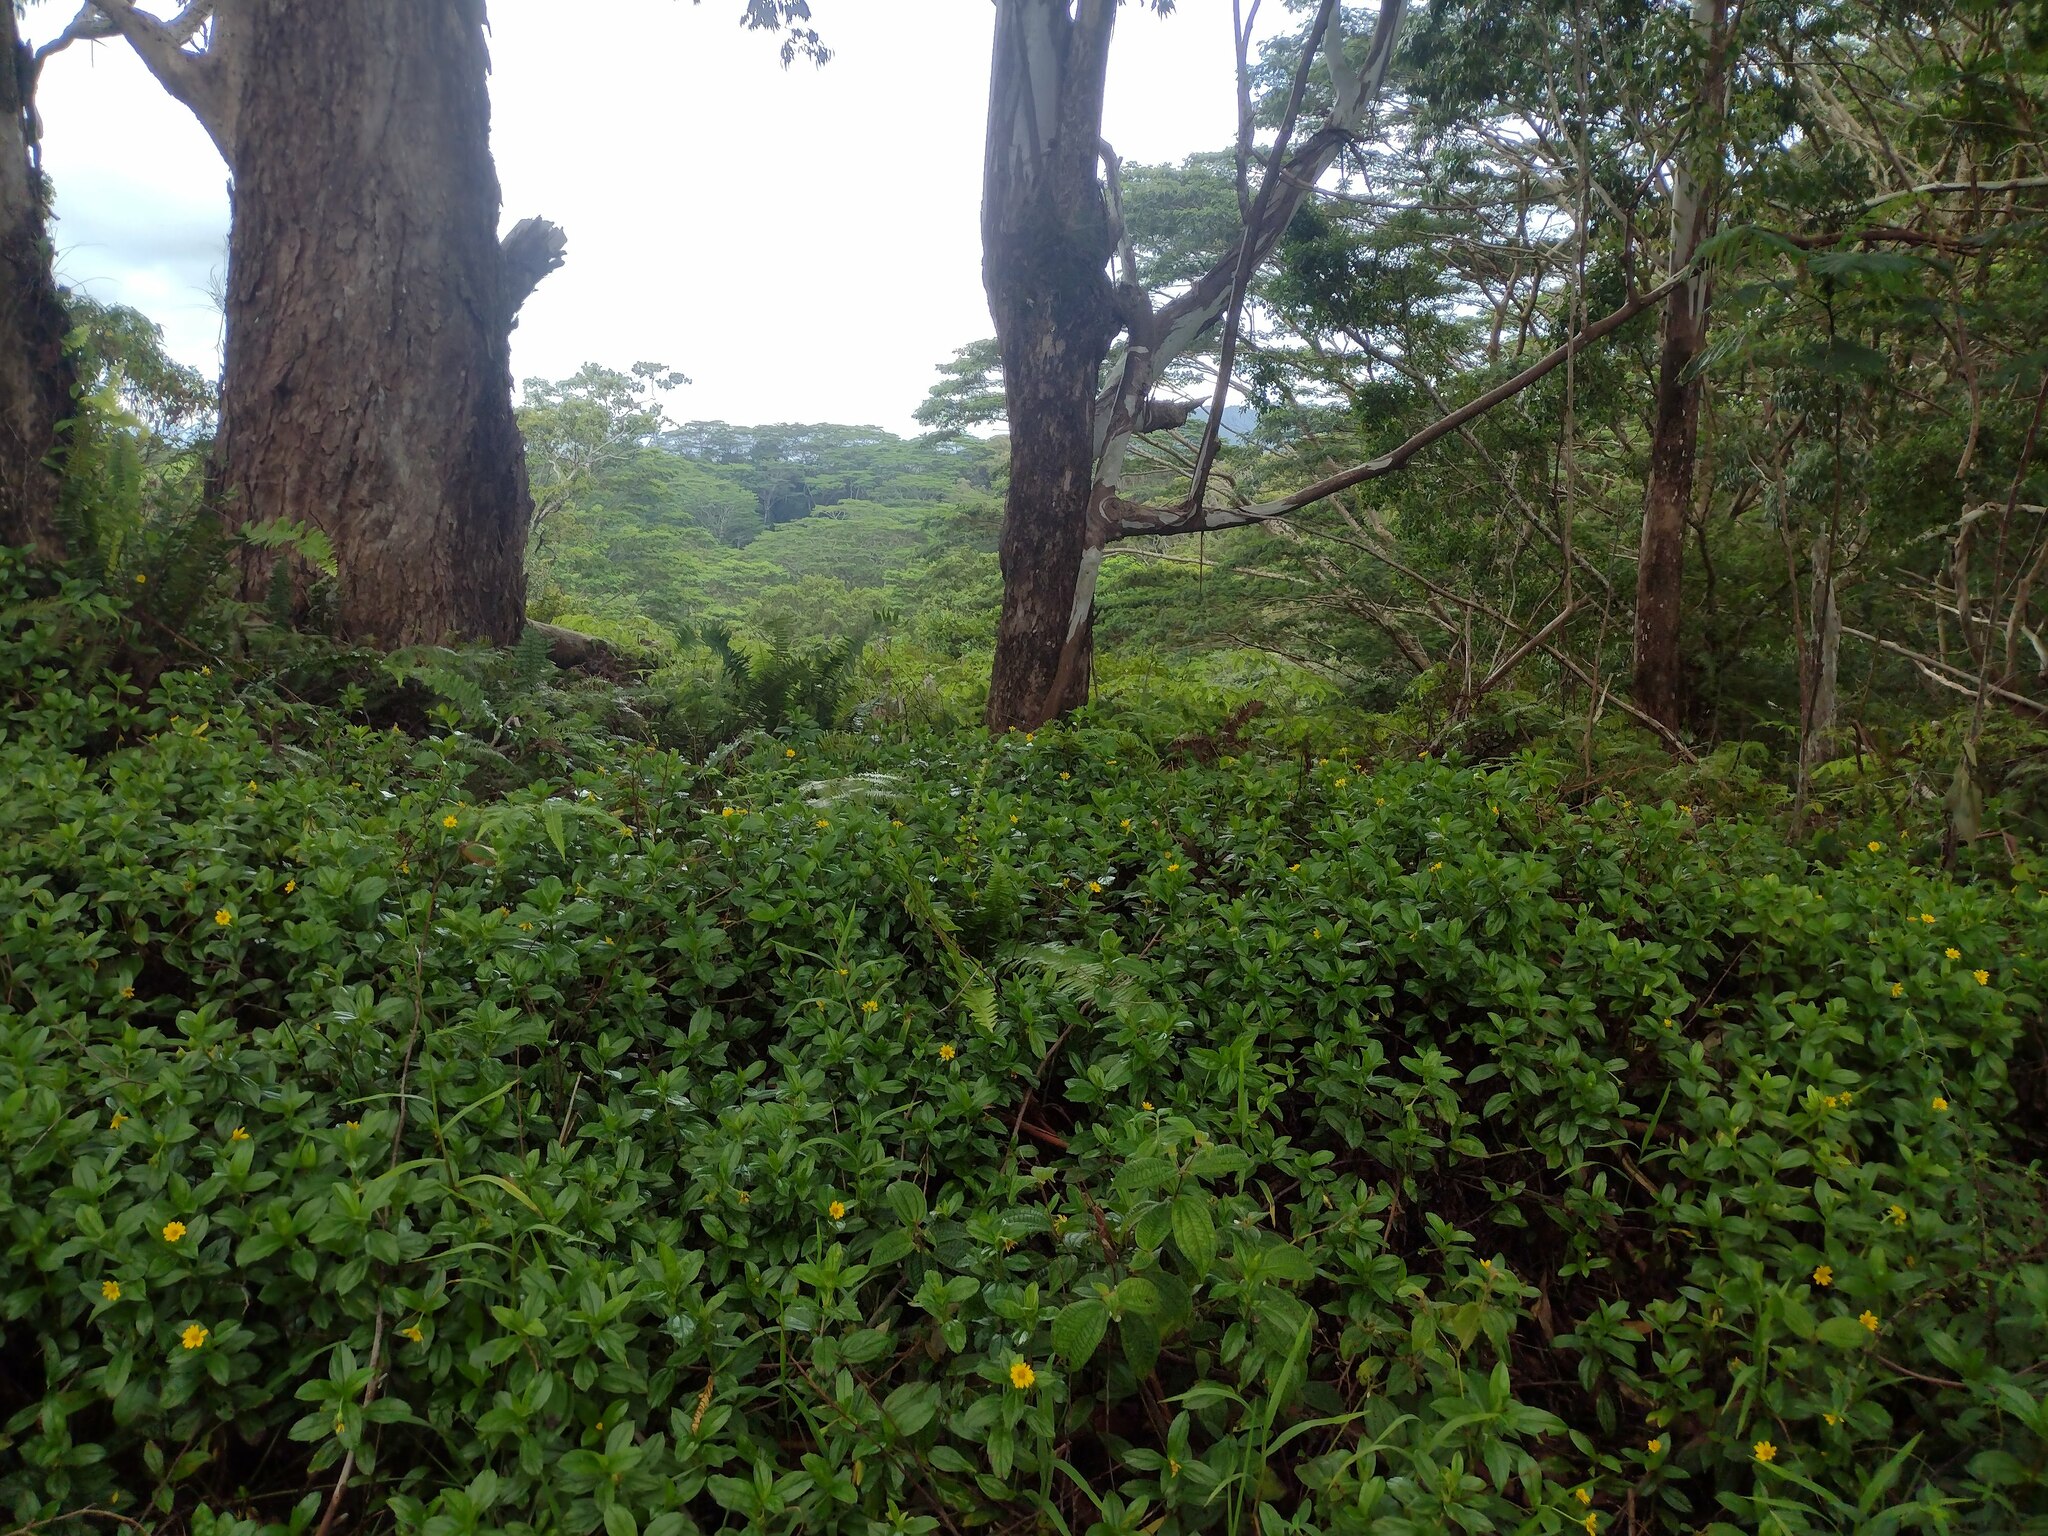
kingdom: Plantae
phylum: Tracheophyta
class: Magnoliopsida
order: Asterales
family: Asteraceae
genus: Sphagneticola
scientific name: Sphagneticola trilobata
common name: Bay biscayne creeping-oxeye
